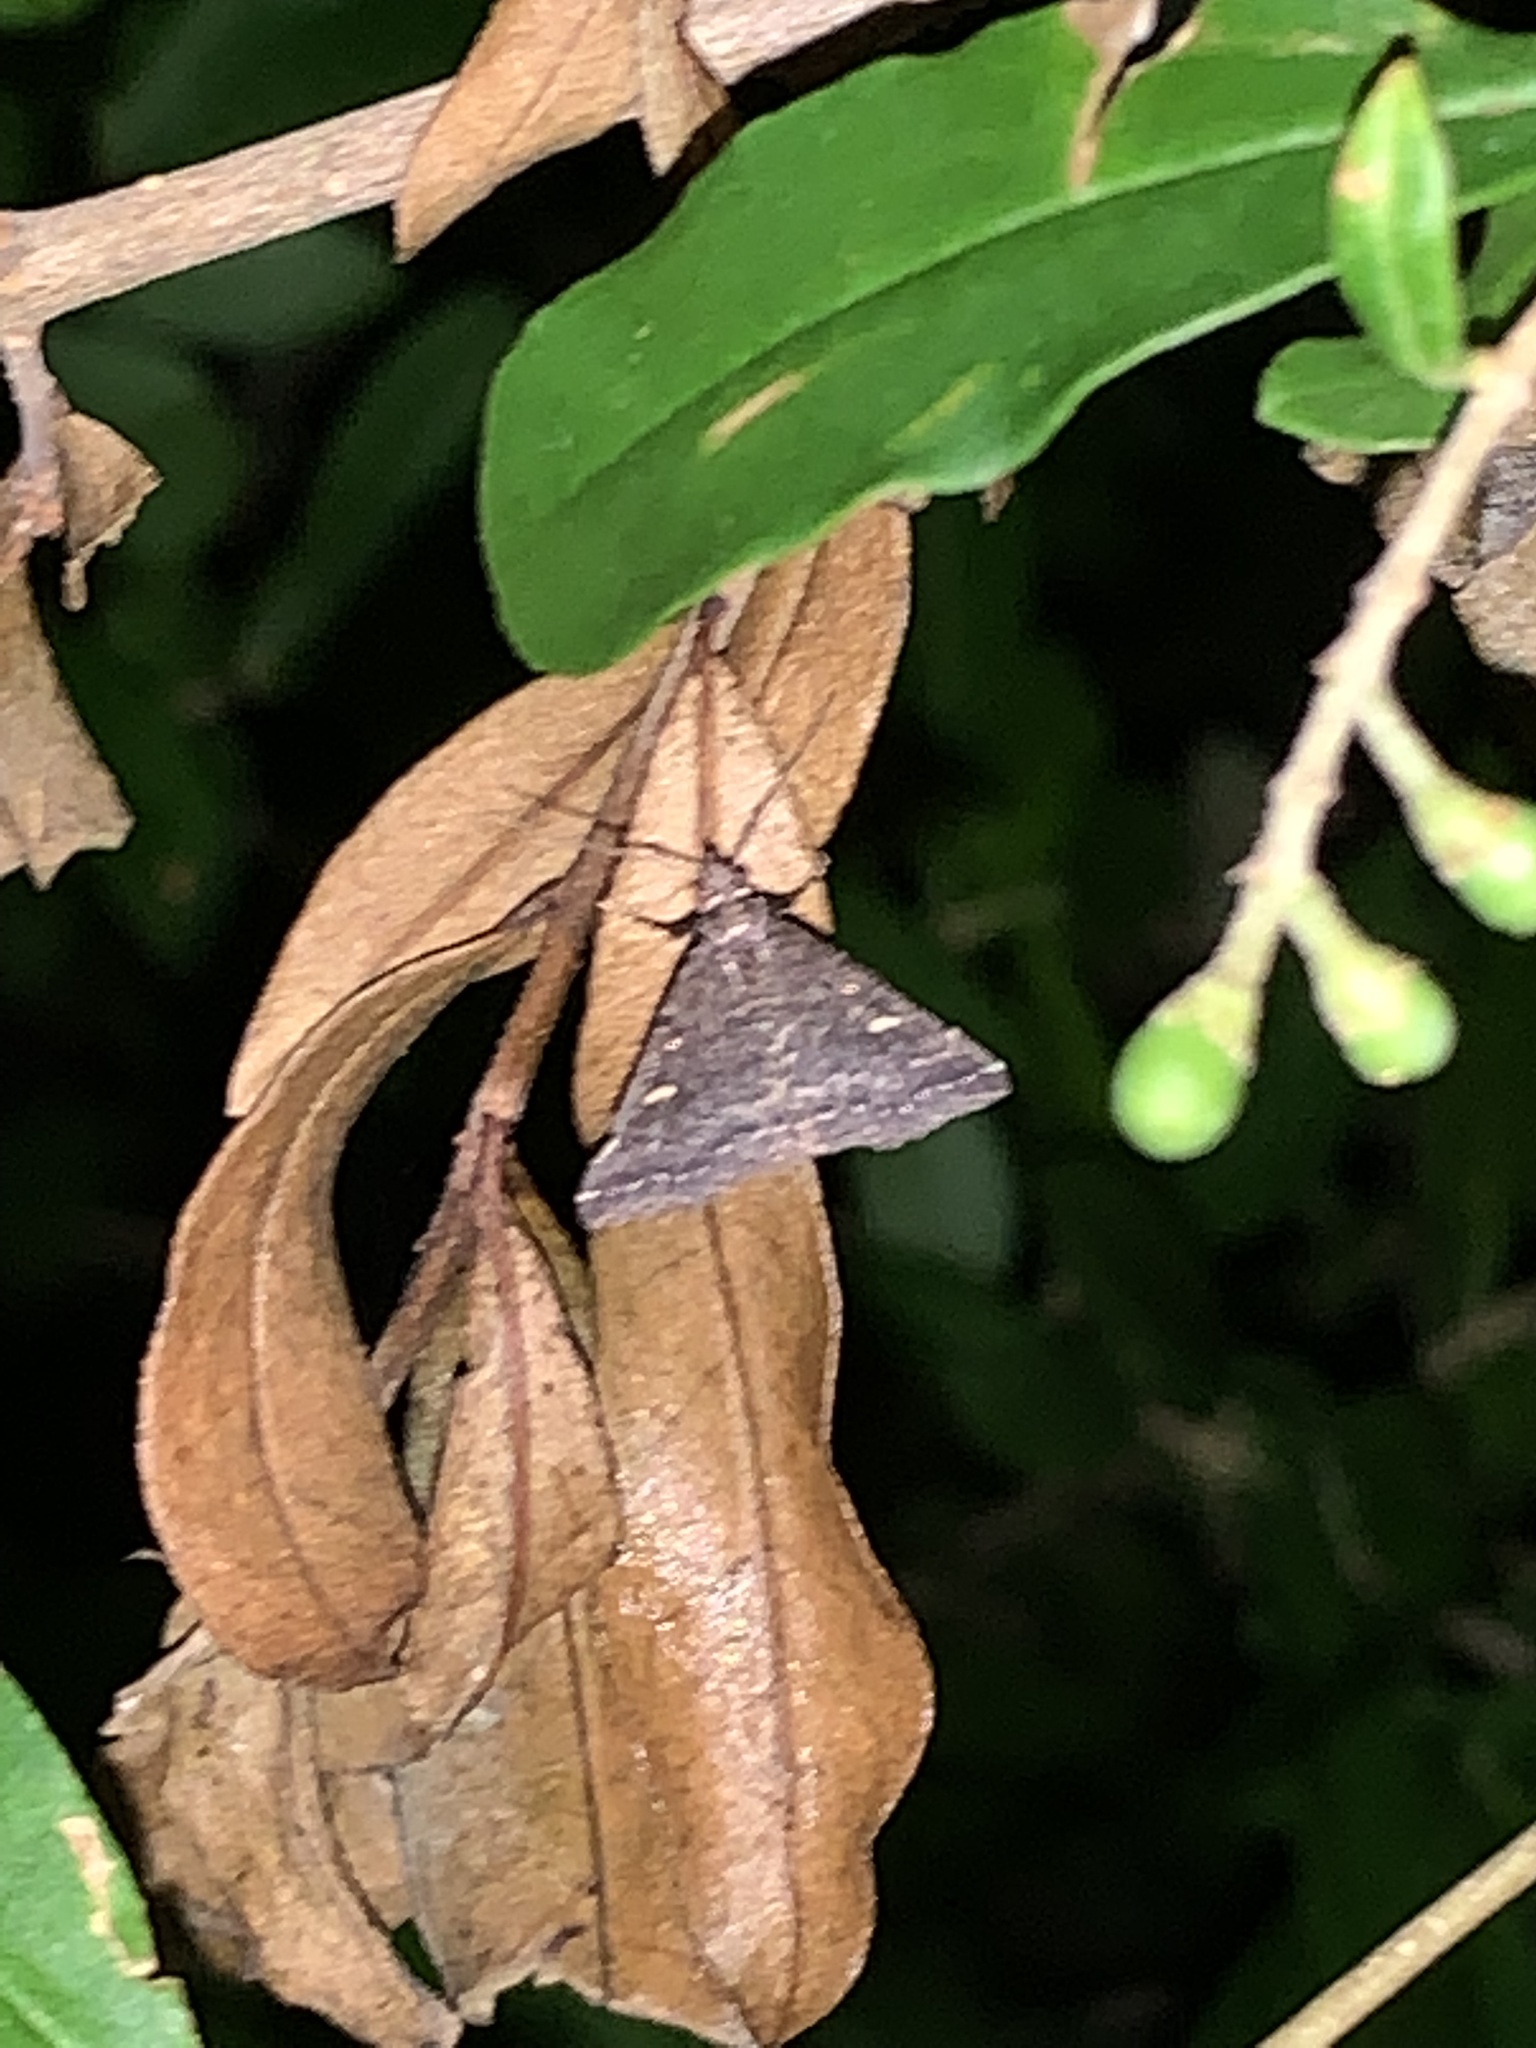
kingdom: Animalia
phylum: Arthropoda
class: Insecta
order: Lepidoptera
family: Erebidae
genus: Tetanolita
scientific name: Tetanolita mynesalis
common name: Smoky tetanolita moth
